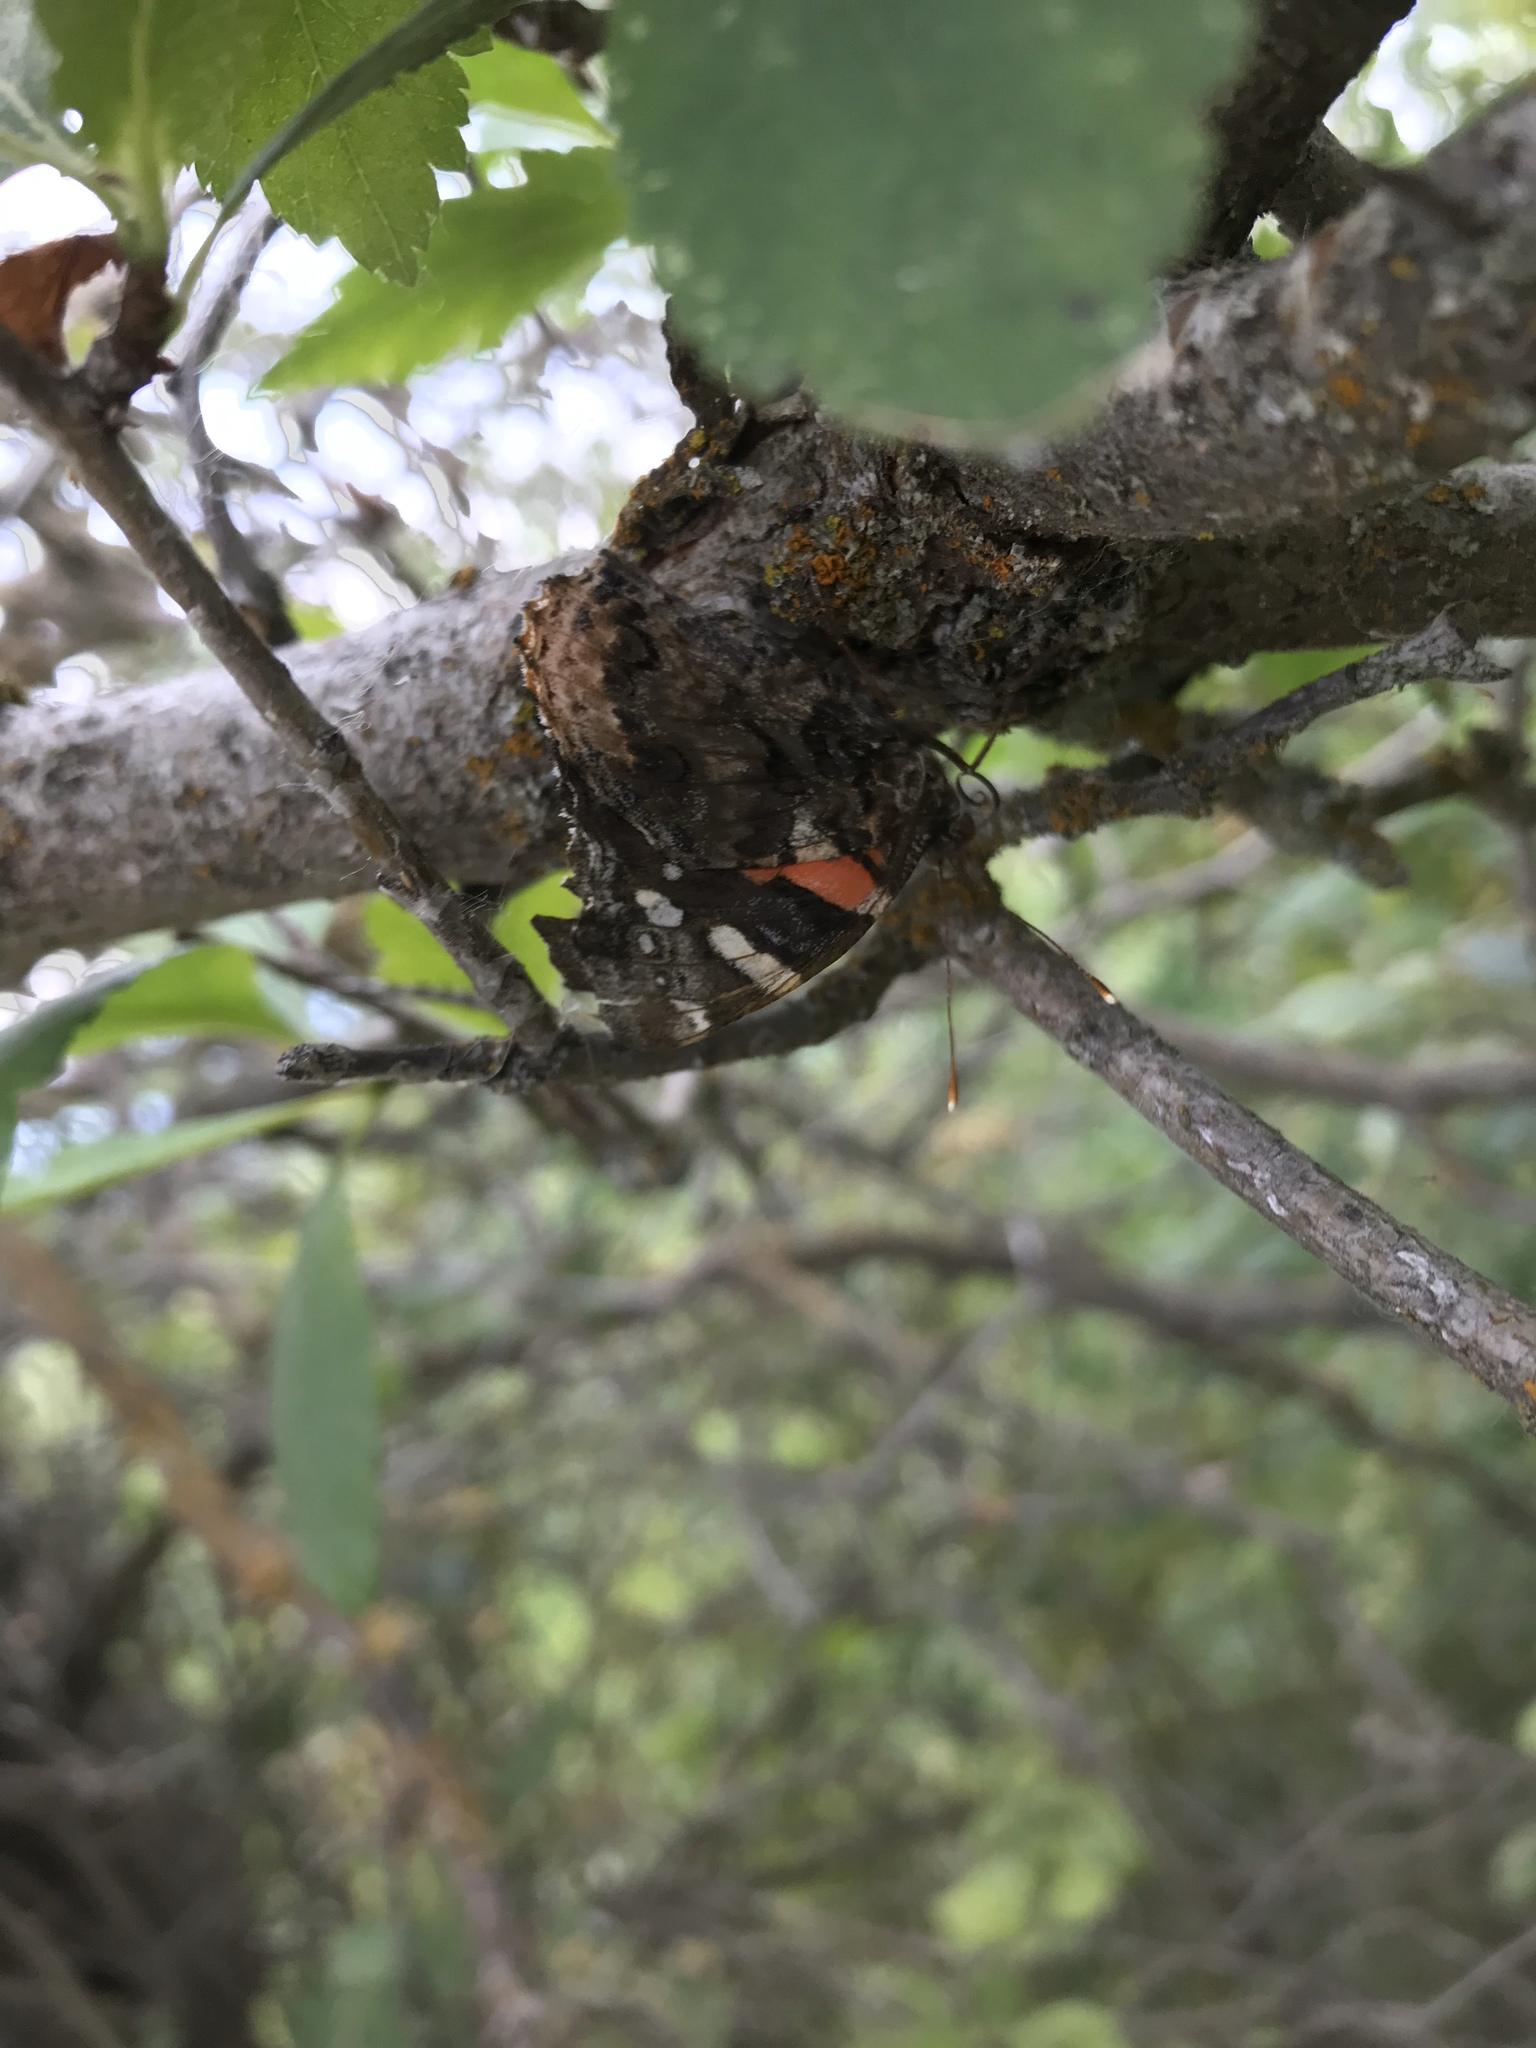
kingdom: Animalia
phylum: Arthropoda
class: Insecta
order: Lepidoptera
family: Nymphalidae
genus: Vanessa
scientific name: Vanessa atalanta
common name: Red admiral
